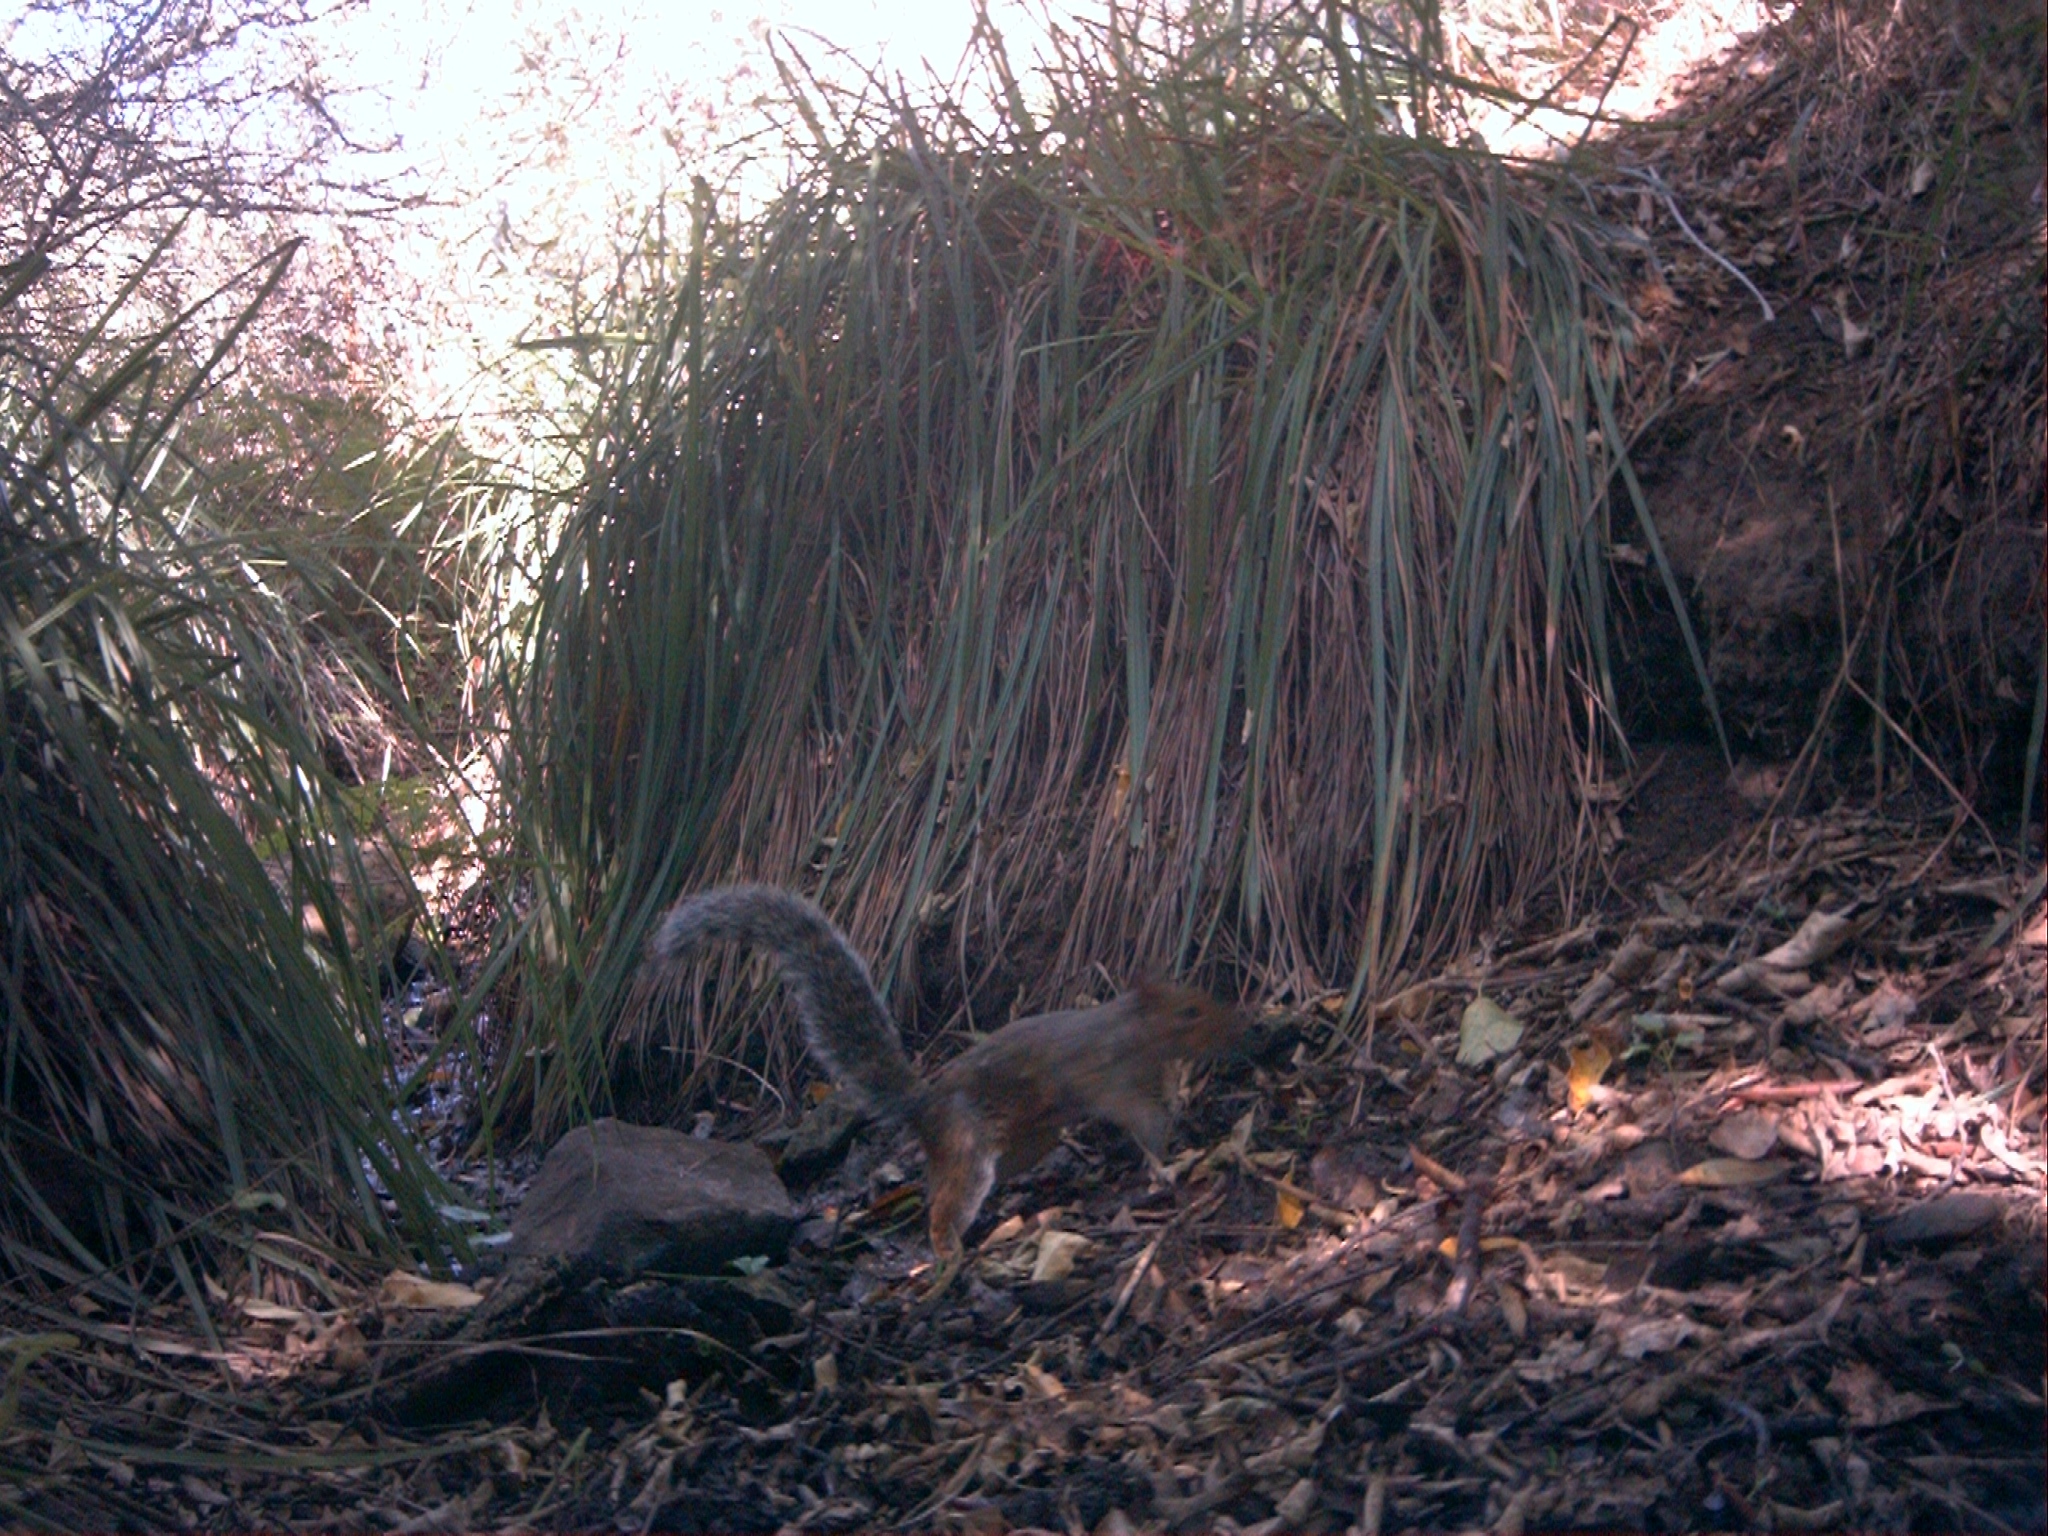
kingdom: Animalia
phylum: Chordata
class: Mammalia
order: Rodentia
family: Sciuridae
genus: Sciurus
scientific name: Sciurus carolinensis
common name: Eastern gray squirrel
